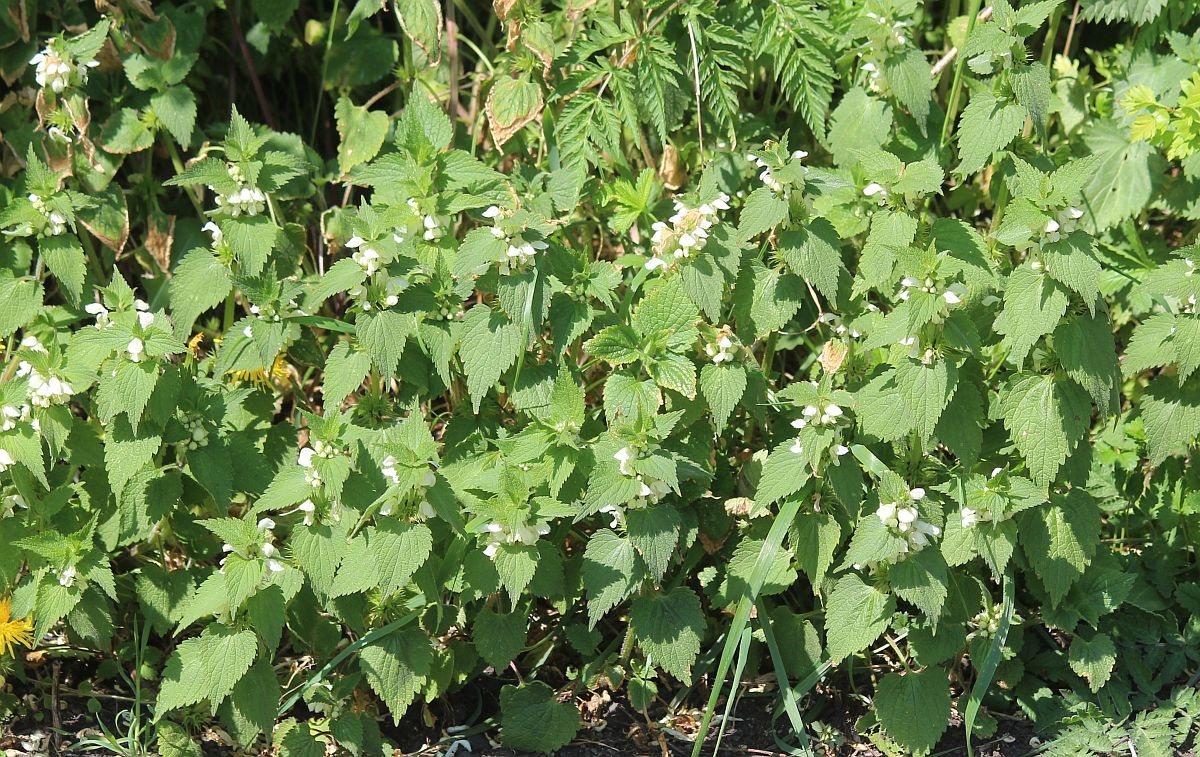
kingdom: Plantae
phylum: Tracheophyta
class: Magnoliopsida
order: Lamiales
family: Lamiaceae
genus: Lamium
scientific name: Lamium album
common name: White dead-nettle
